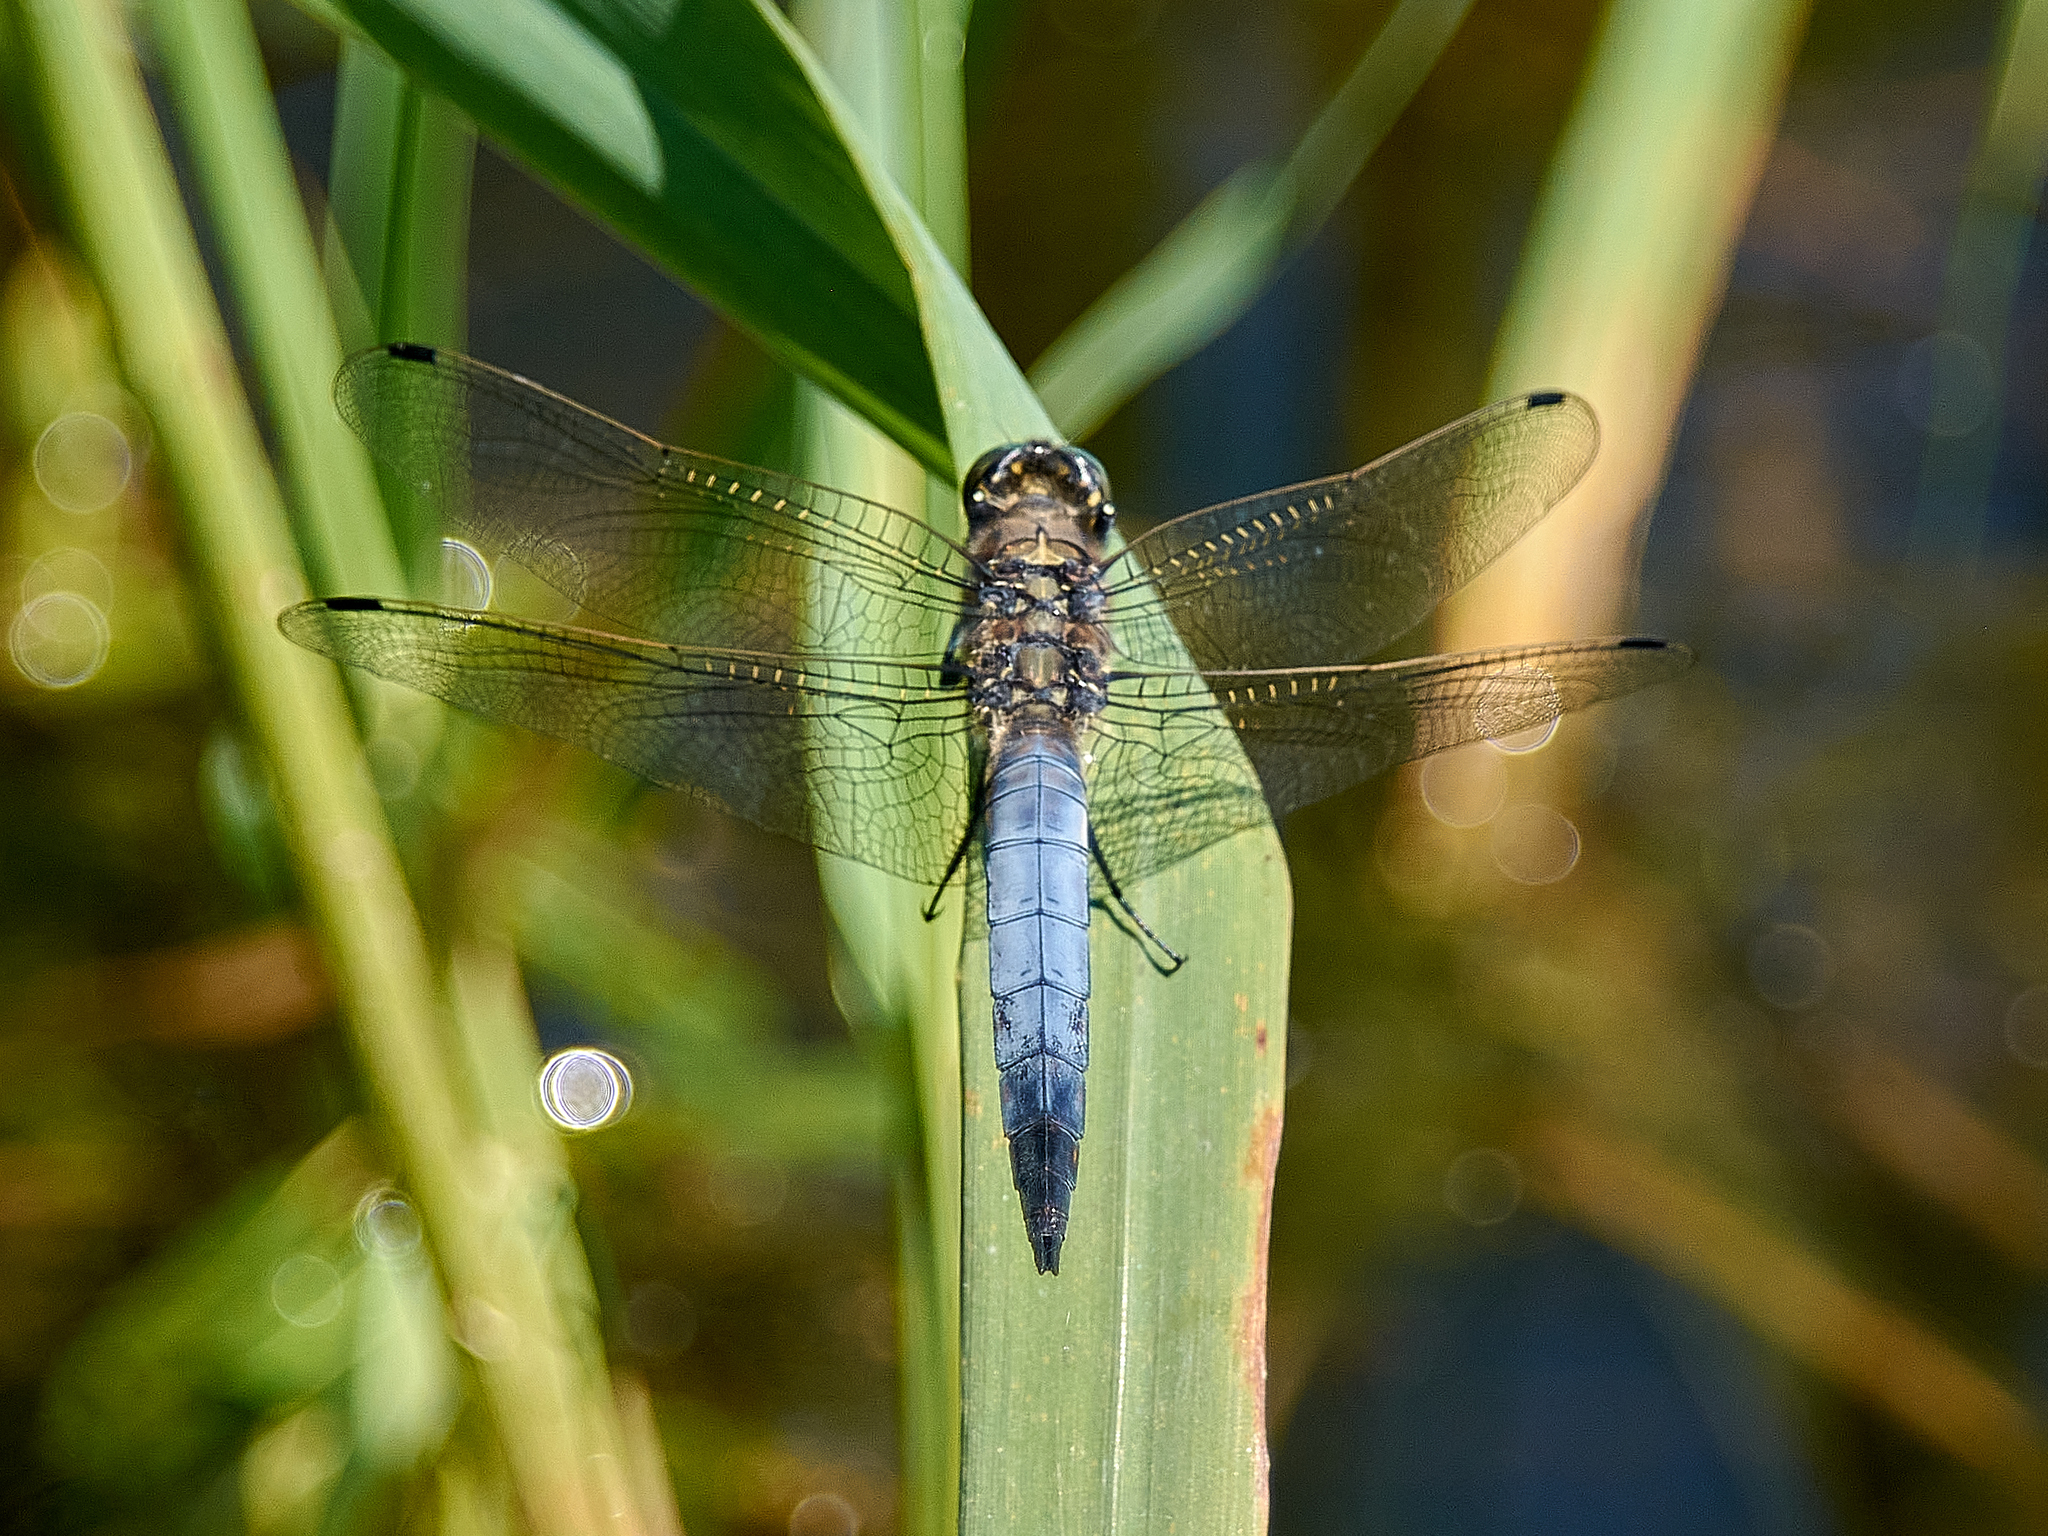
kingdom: Animalia
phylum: Arthropoda
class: Insecta
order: Odonata
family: Libellulidae
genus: Orthetrum
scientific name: Orthetrum cancellatum
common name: Black-tailed skimmer
